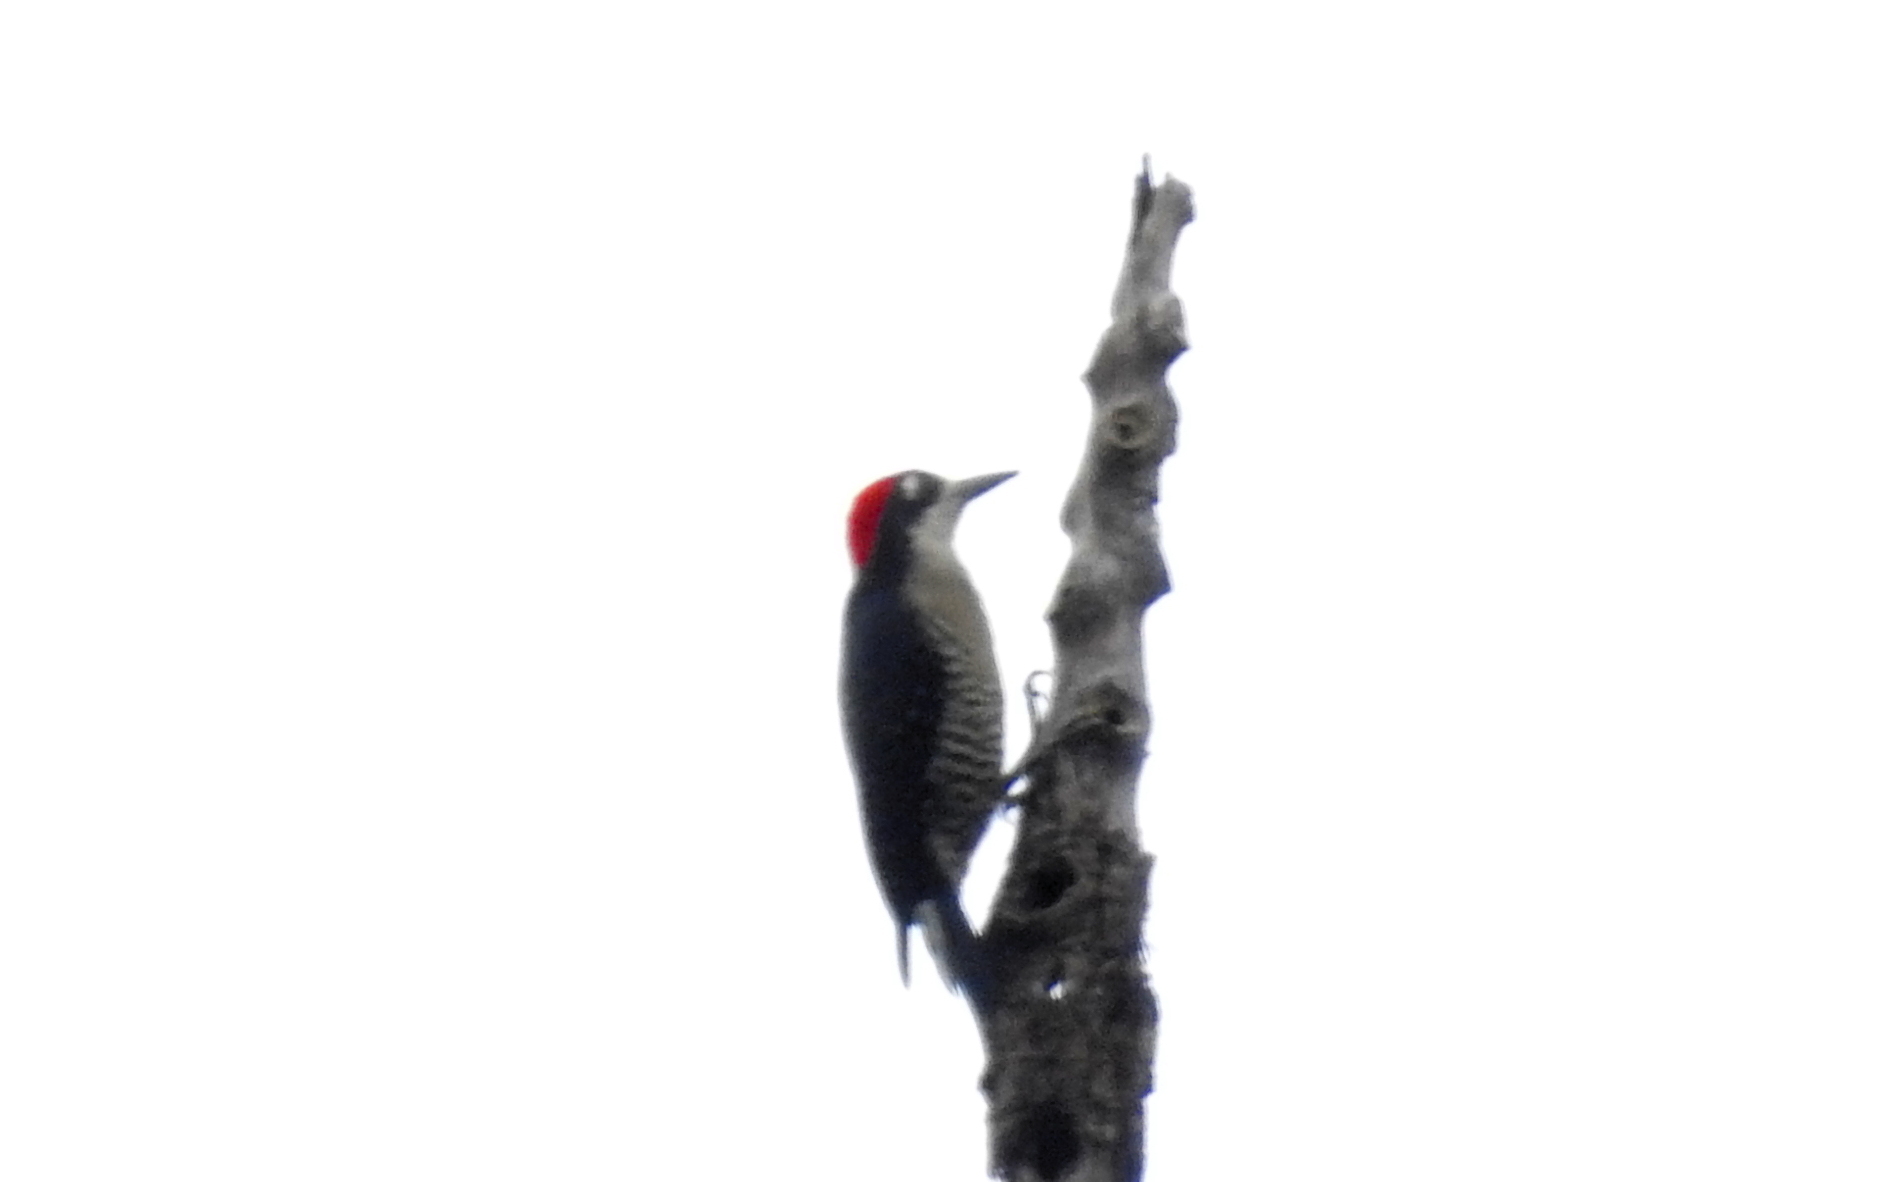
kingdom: Animalia
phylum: Chordata
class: Aves
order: Piciformes
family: Picidae
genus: Melanerpes
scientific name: Melanerpes pucherani
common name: Black-cheeked woodpecker
